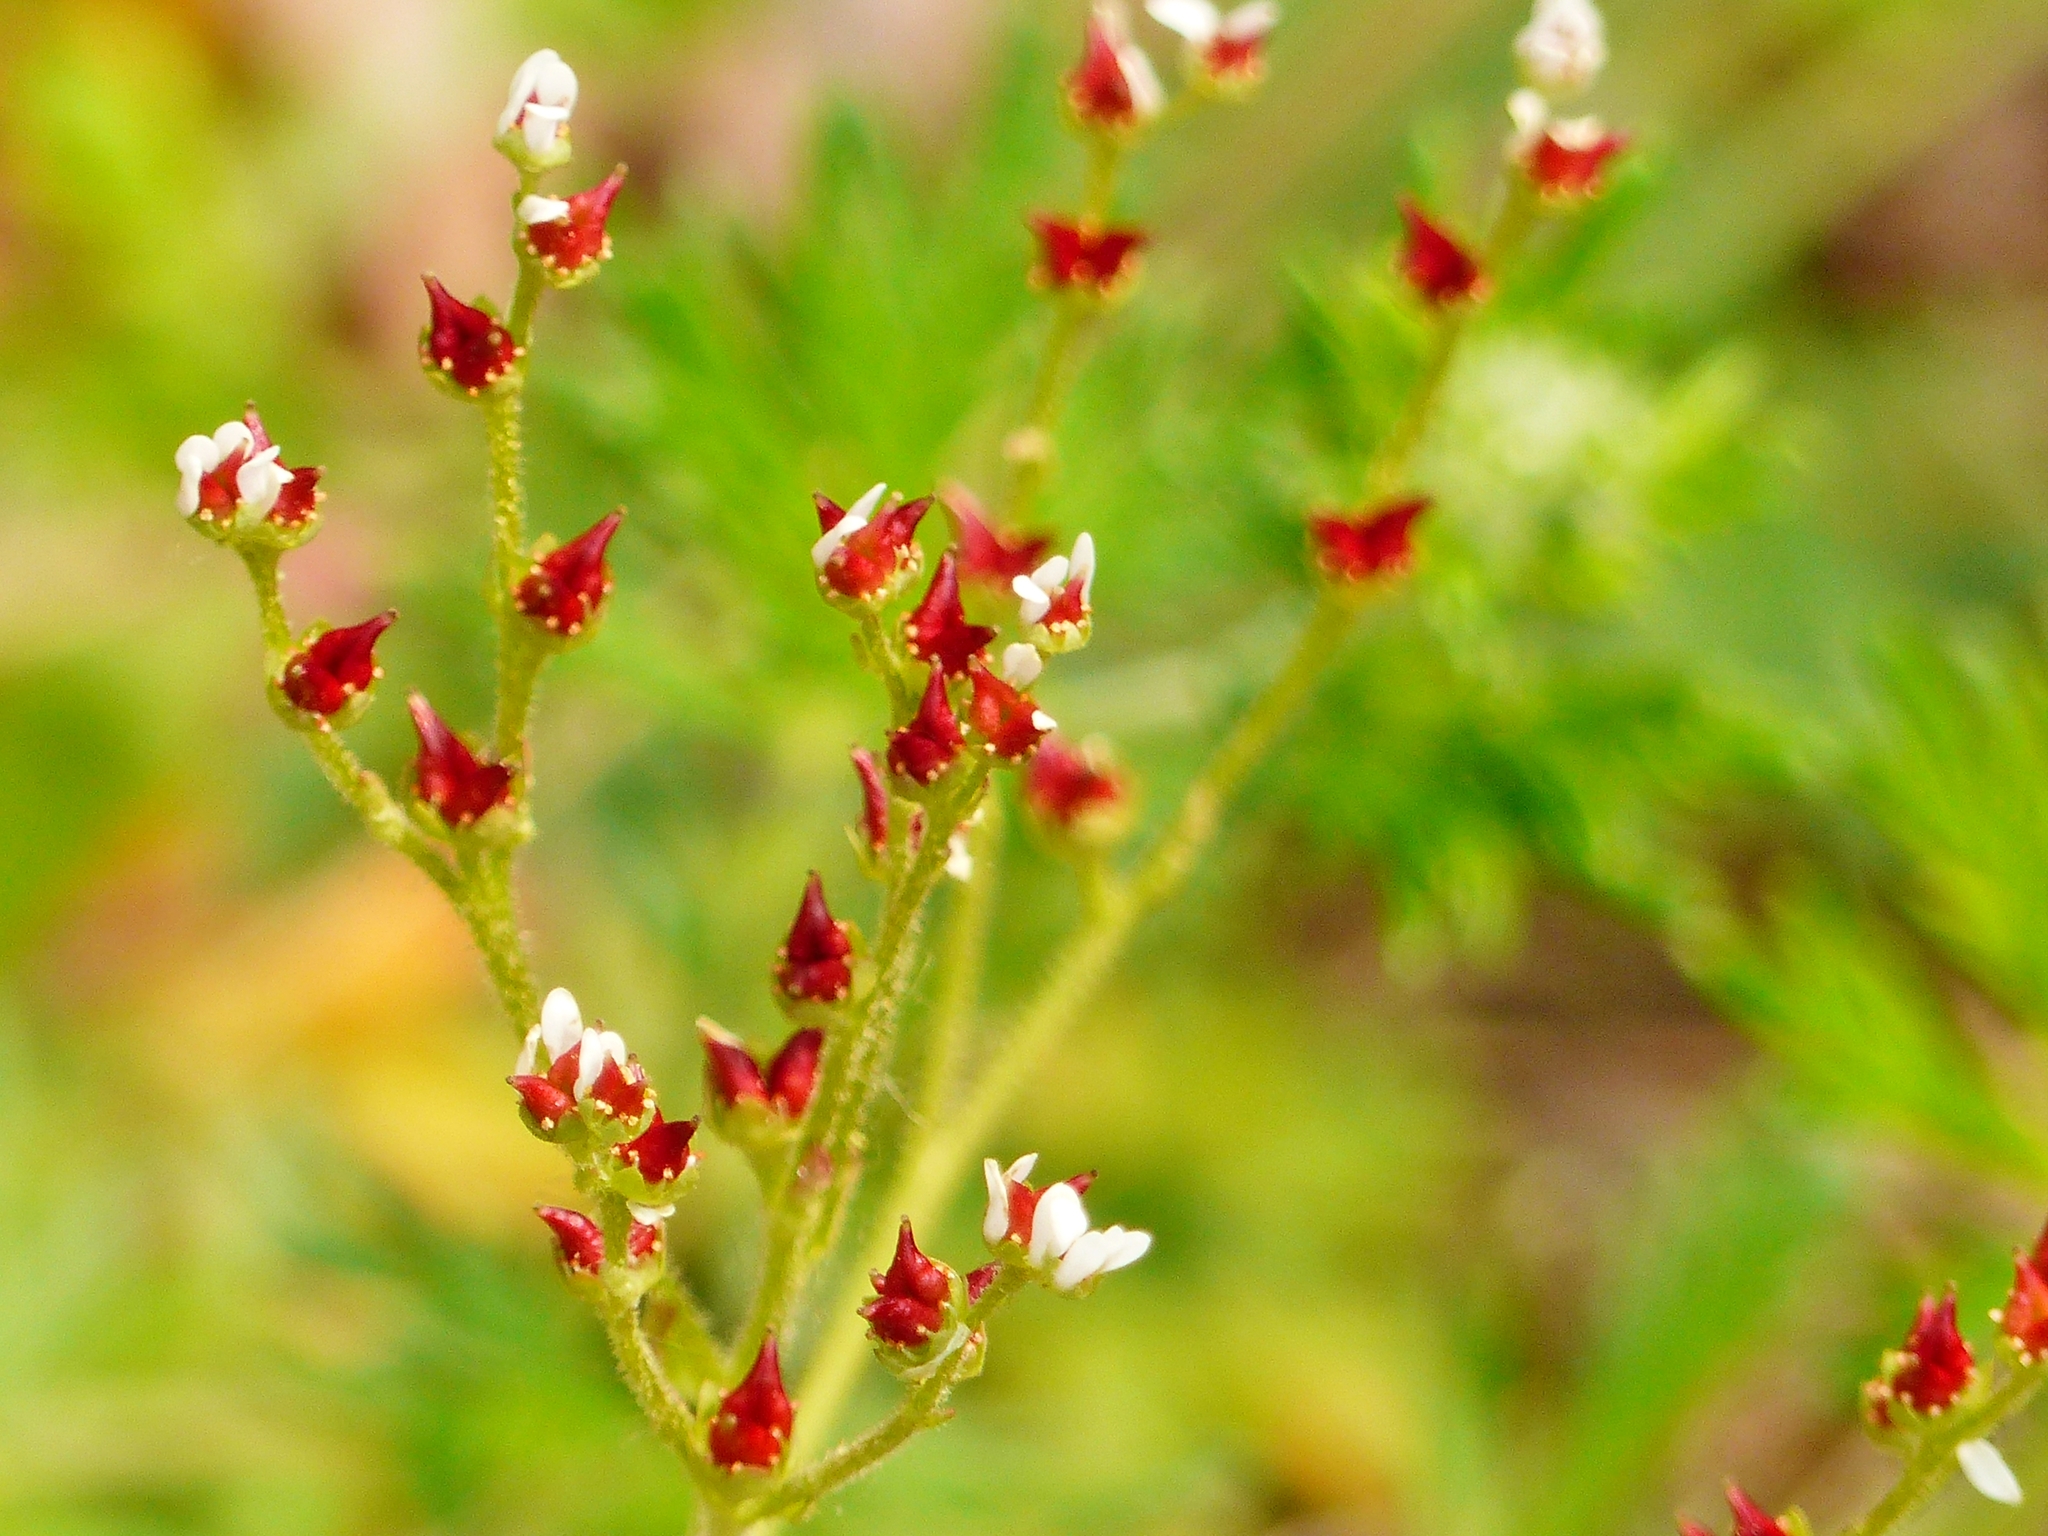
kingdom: Plantae
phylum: Tracheophyta
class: Magnoliopsida
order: Saxifragales
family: Saxifragaceae
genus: Micranthes
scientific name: Micranthes virginiensis
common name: Early saxifrage
